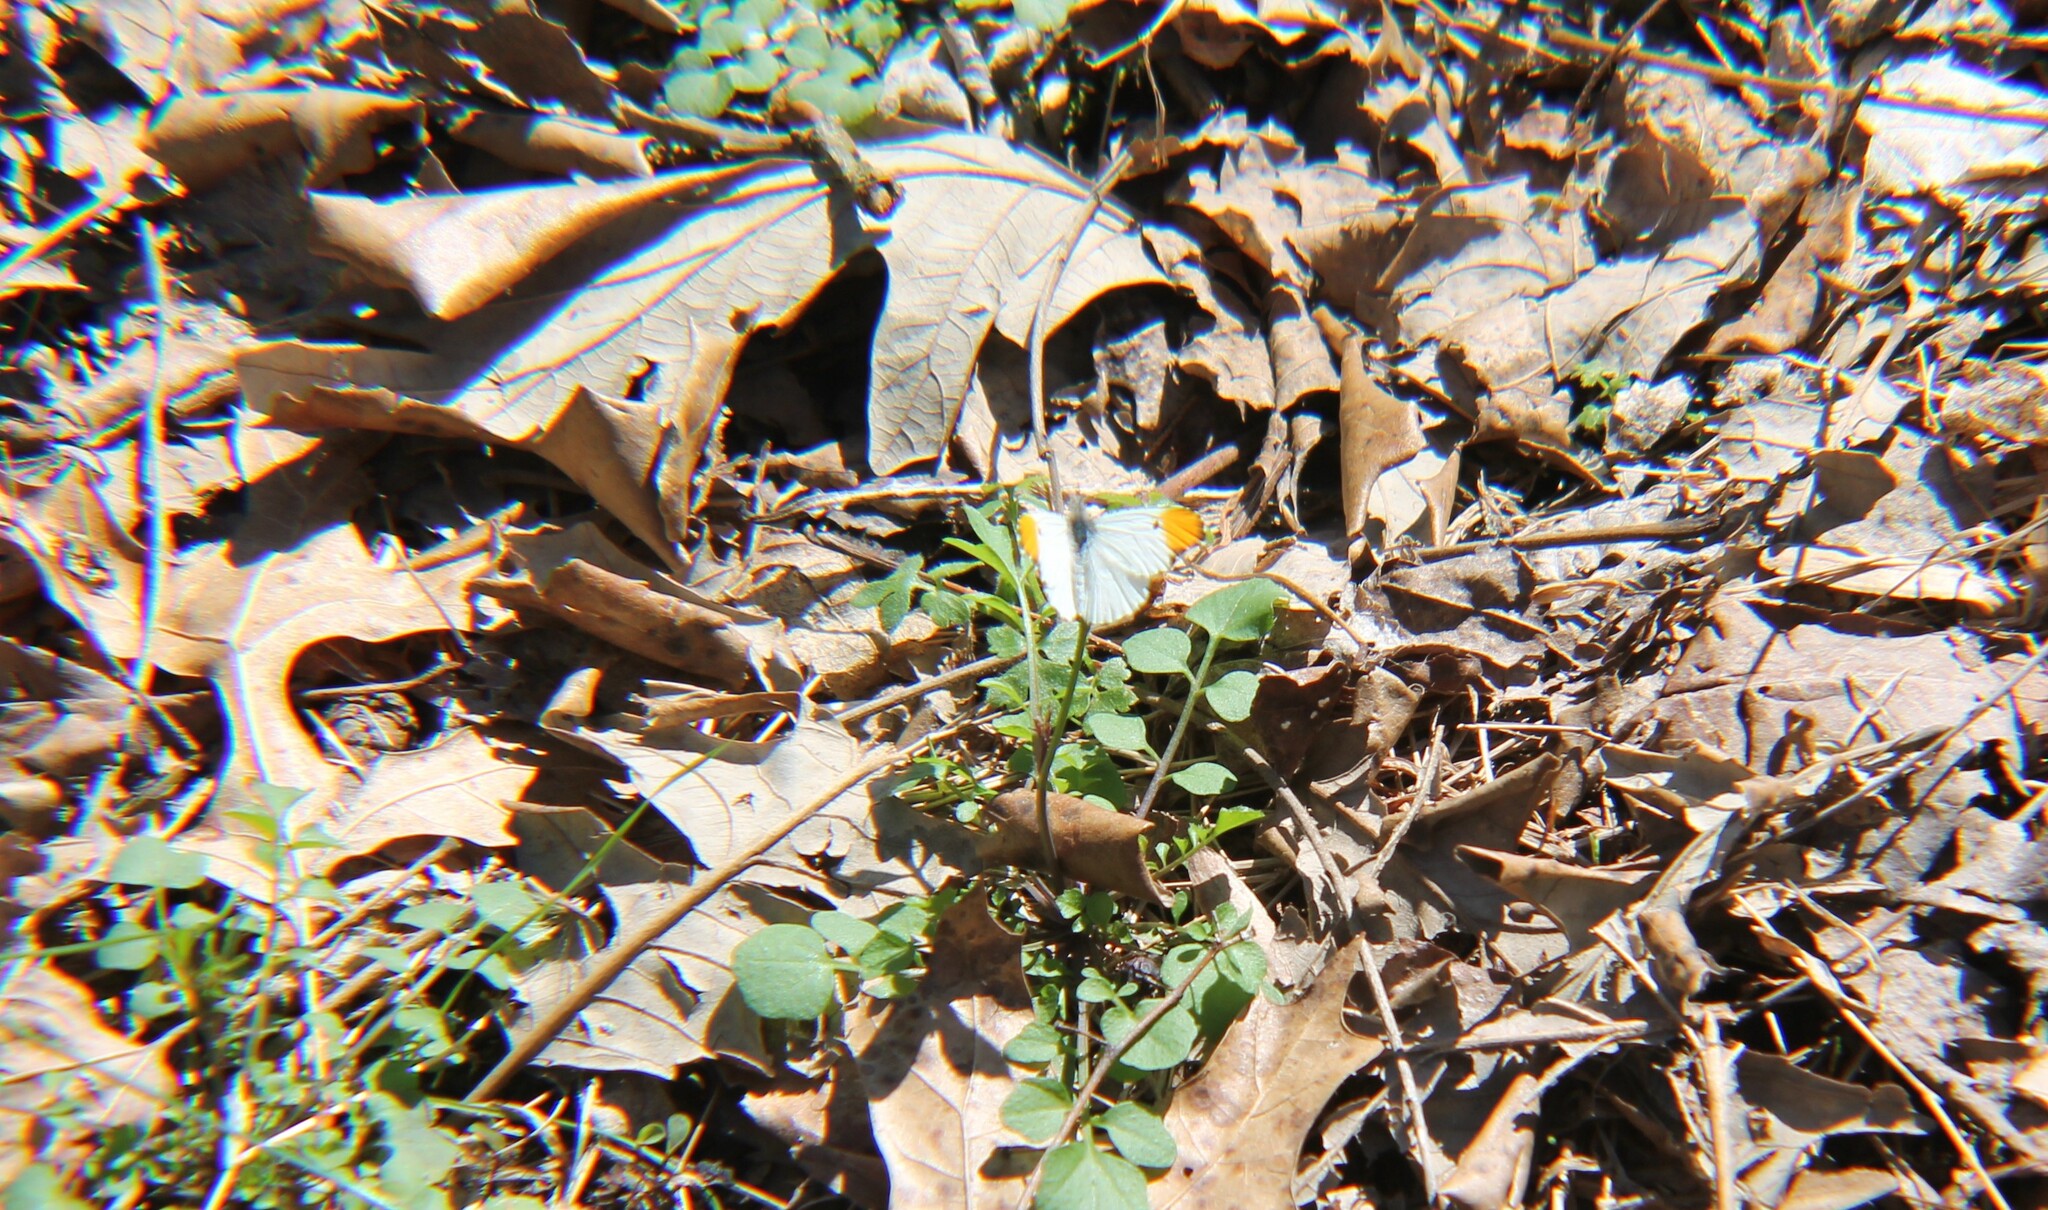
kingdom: Animalia
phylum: Arthropoda
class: Insecta
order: Lepidoptera
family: Pieridae
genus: Anthocharis
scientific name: Anthocharis midea
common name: Falcate orangetip
